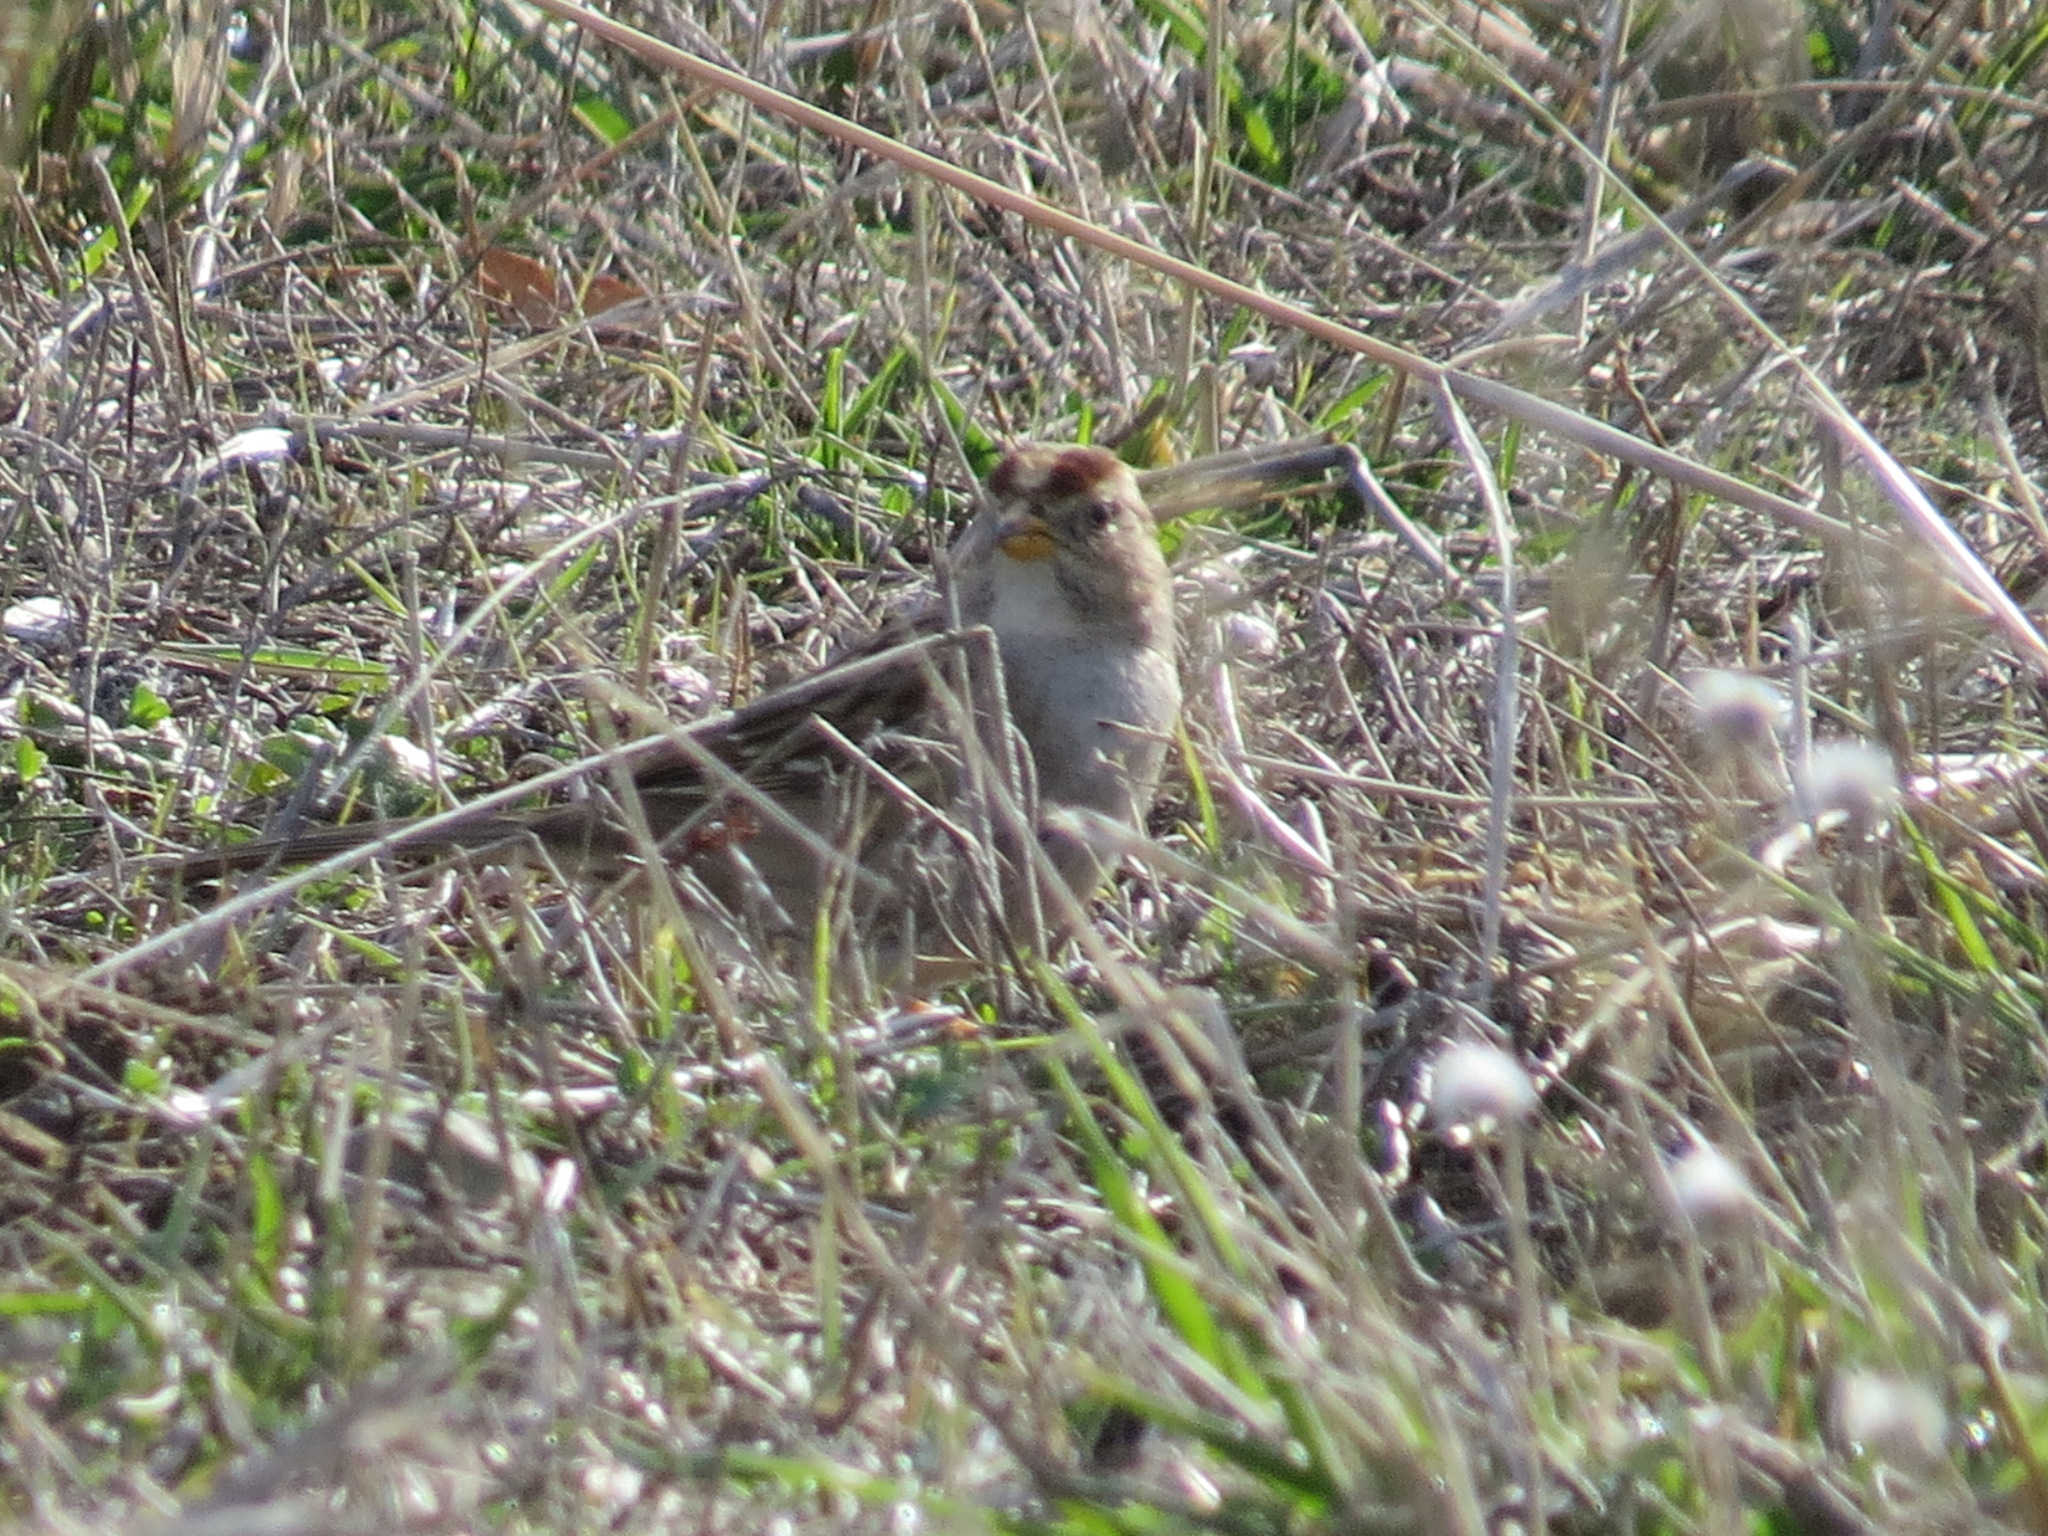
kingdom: Animalia
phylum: Chordata
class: Aves
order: Passeriformes
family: Passerellidae
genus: Zonotrichia
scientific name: Zonotrichia leucophrys
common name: White-crowned sparrow
